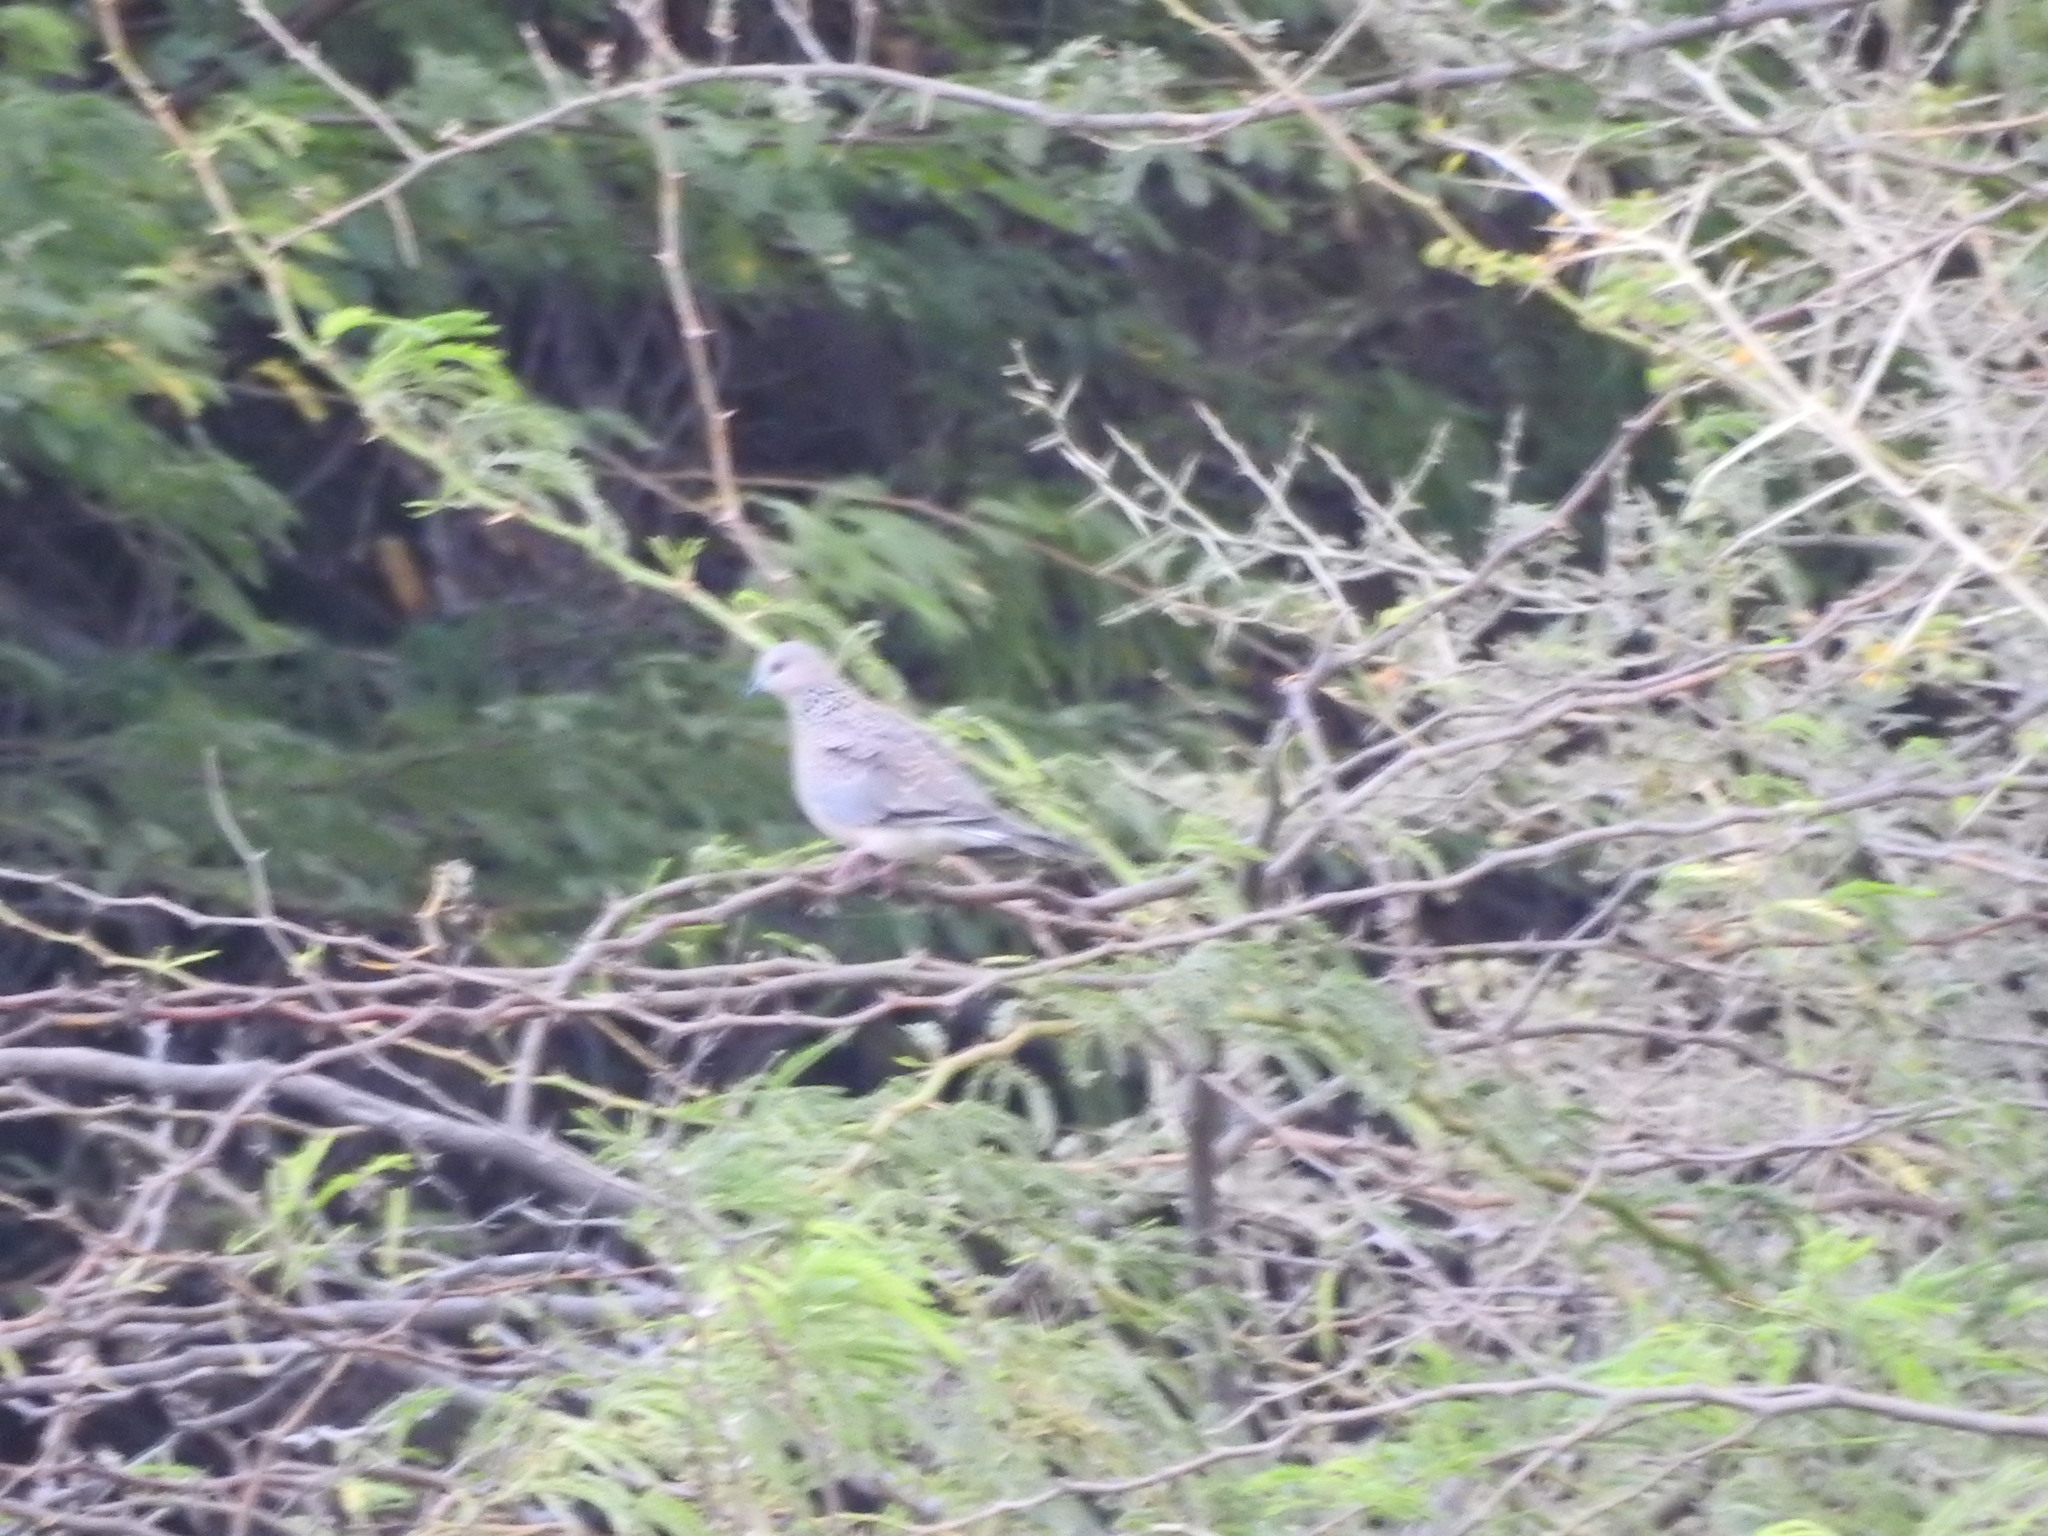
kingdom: Animalia
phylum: Chordata
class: Aves
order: Columbiformes
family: Columbidae
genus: Spilopelia
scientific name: Spilopelia chinensis
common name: Spotted dove
